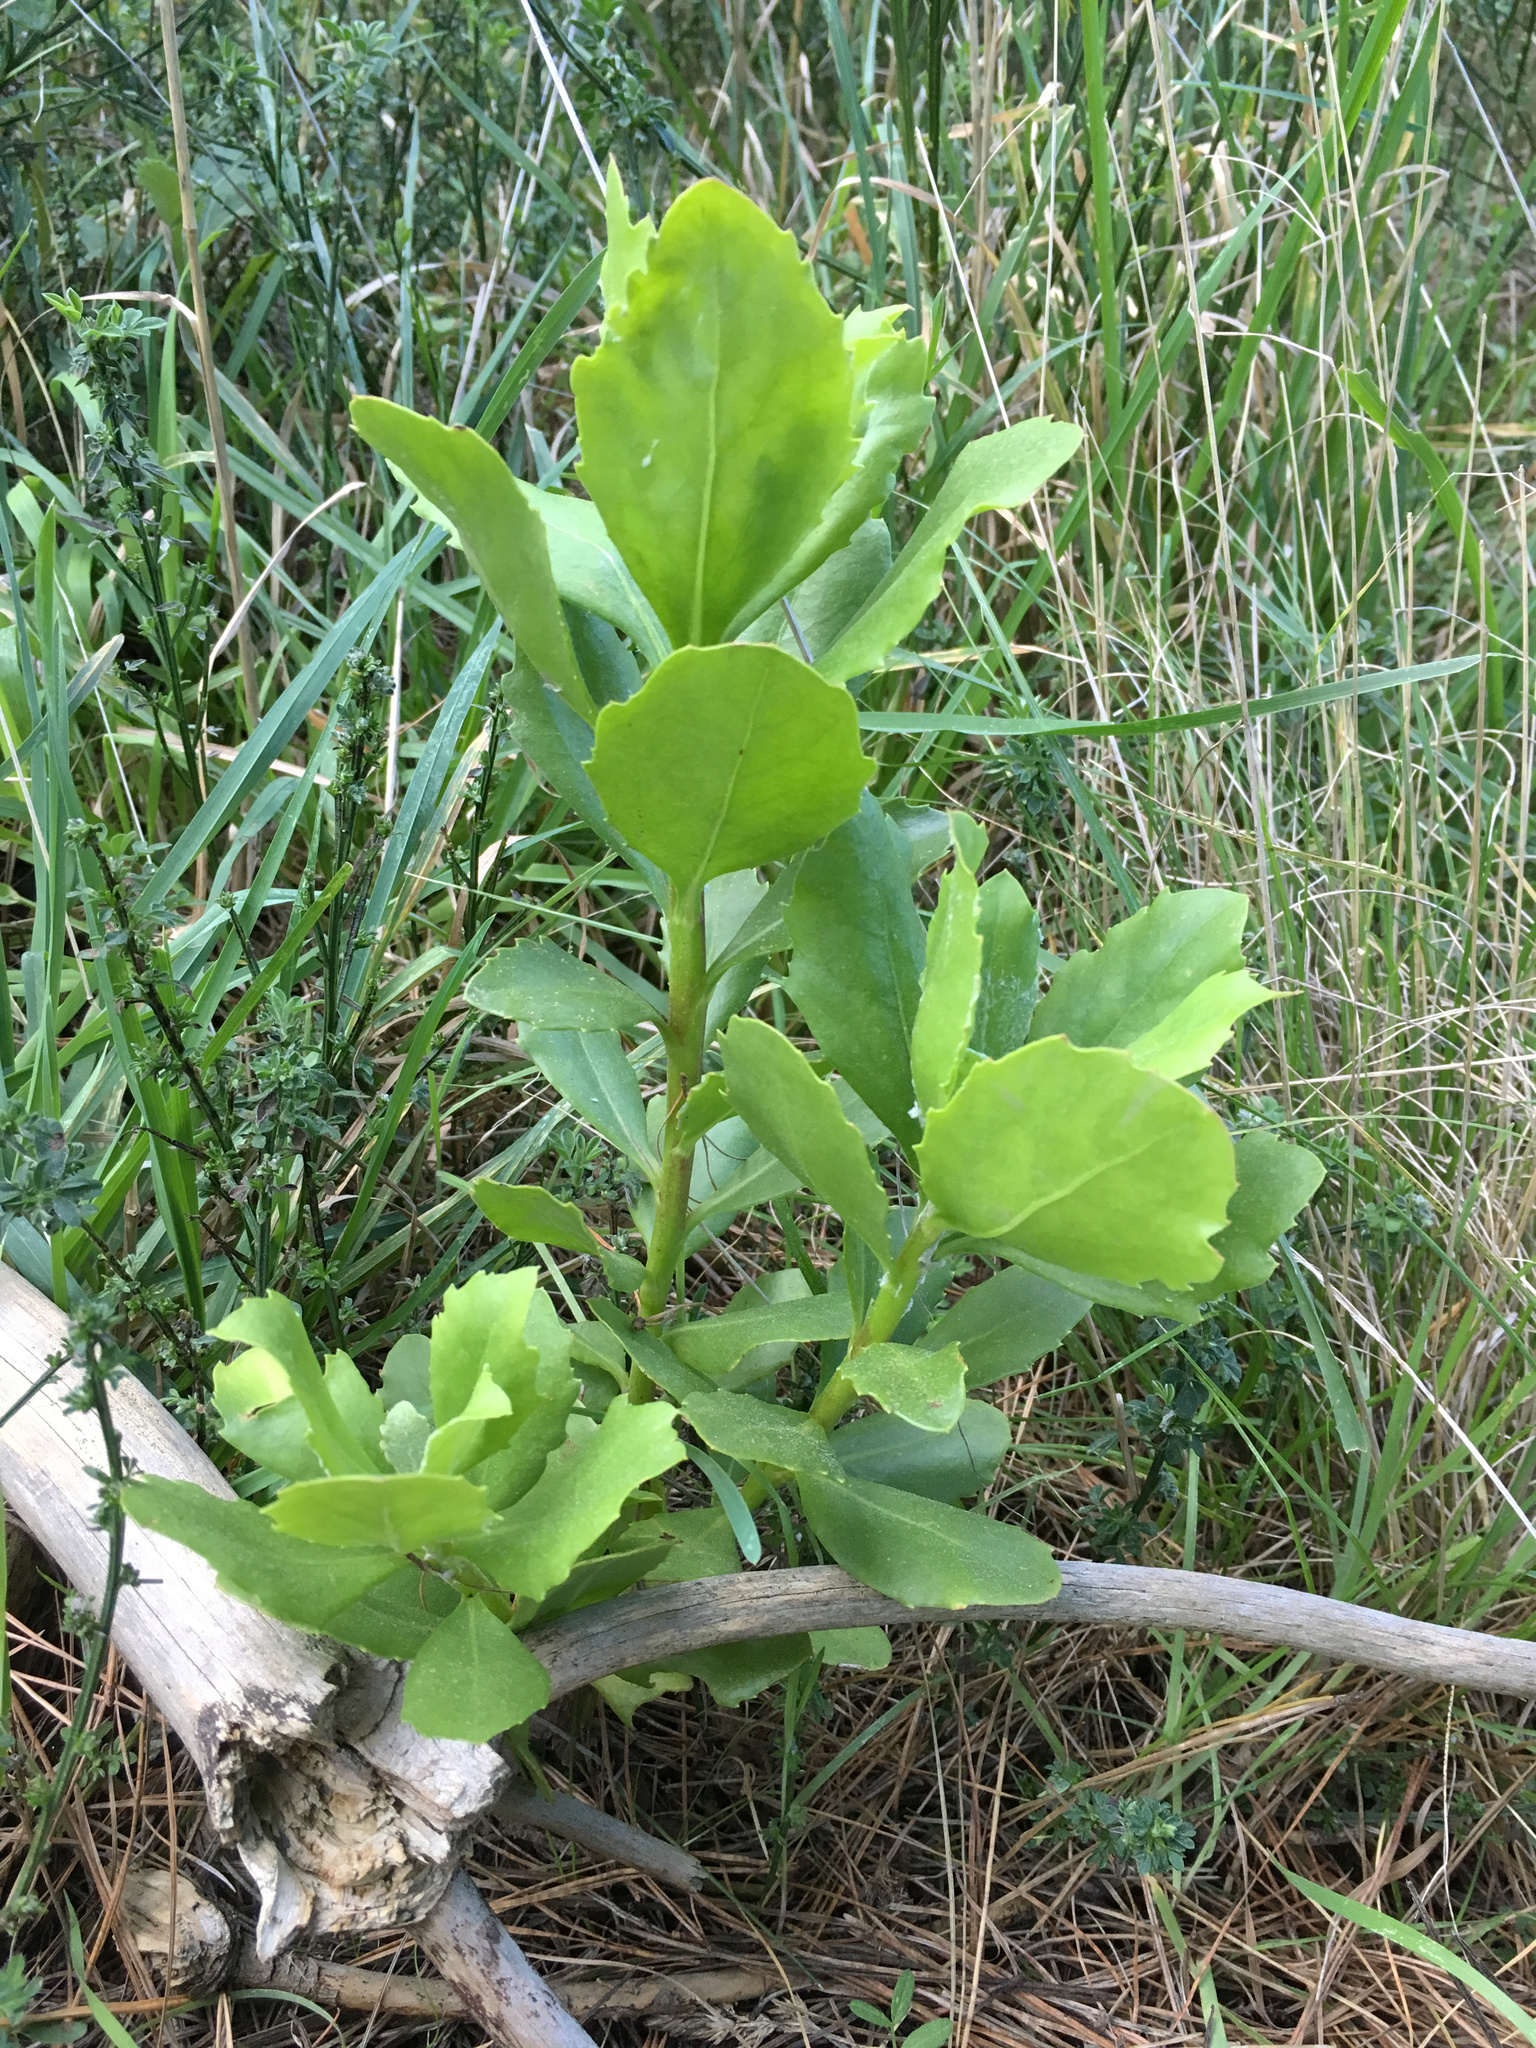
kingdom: Plantae
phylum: Tracheophyta
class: Magnoliopsida
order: Asterales
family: Asteraceae
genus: Osteospermum
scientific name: Osteospermum moniliferum
